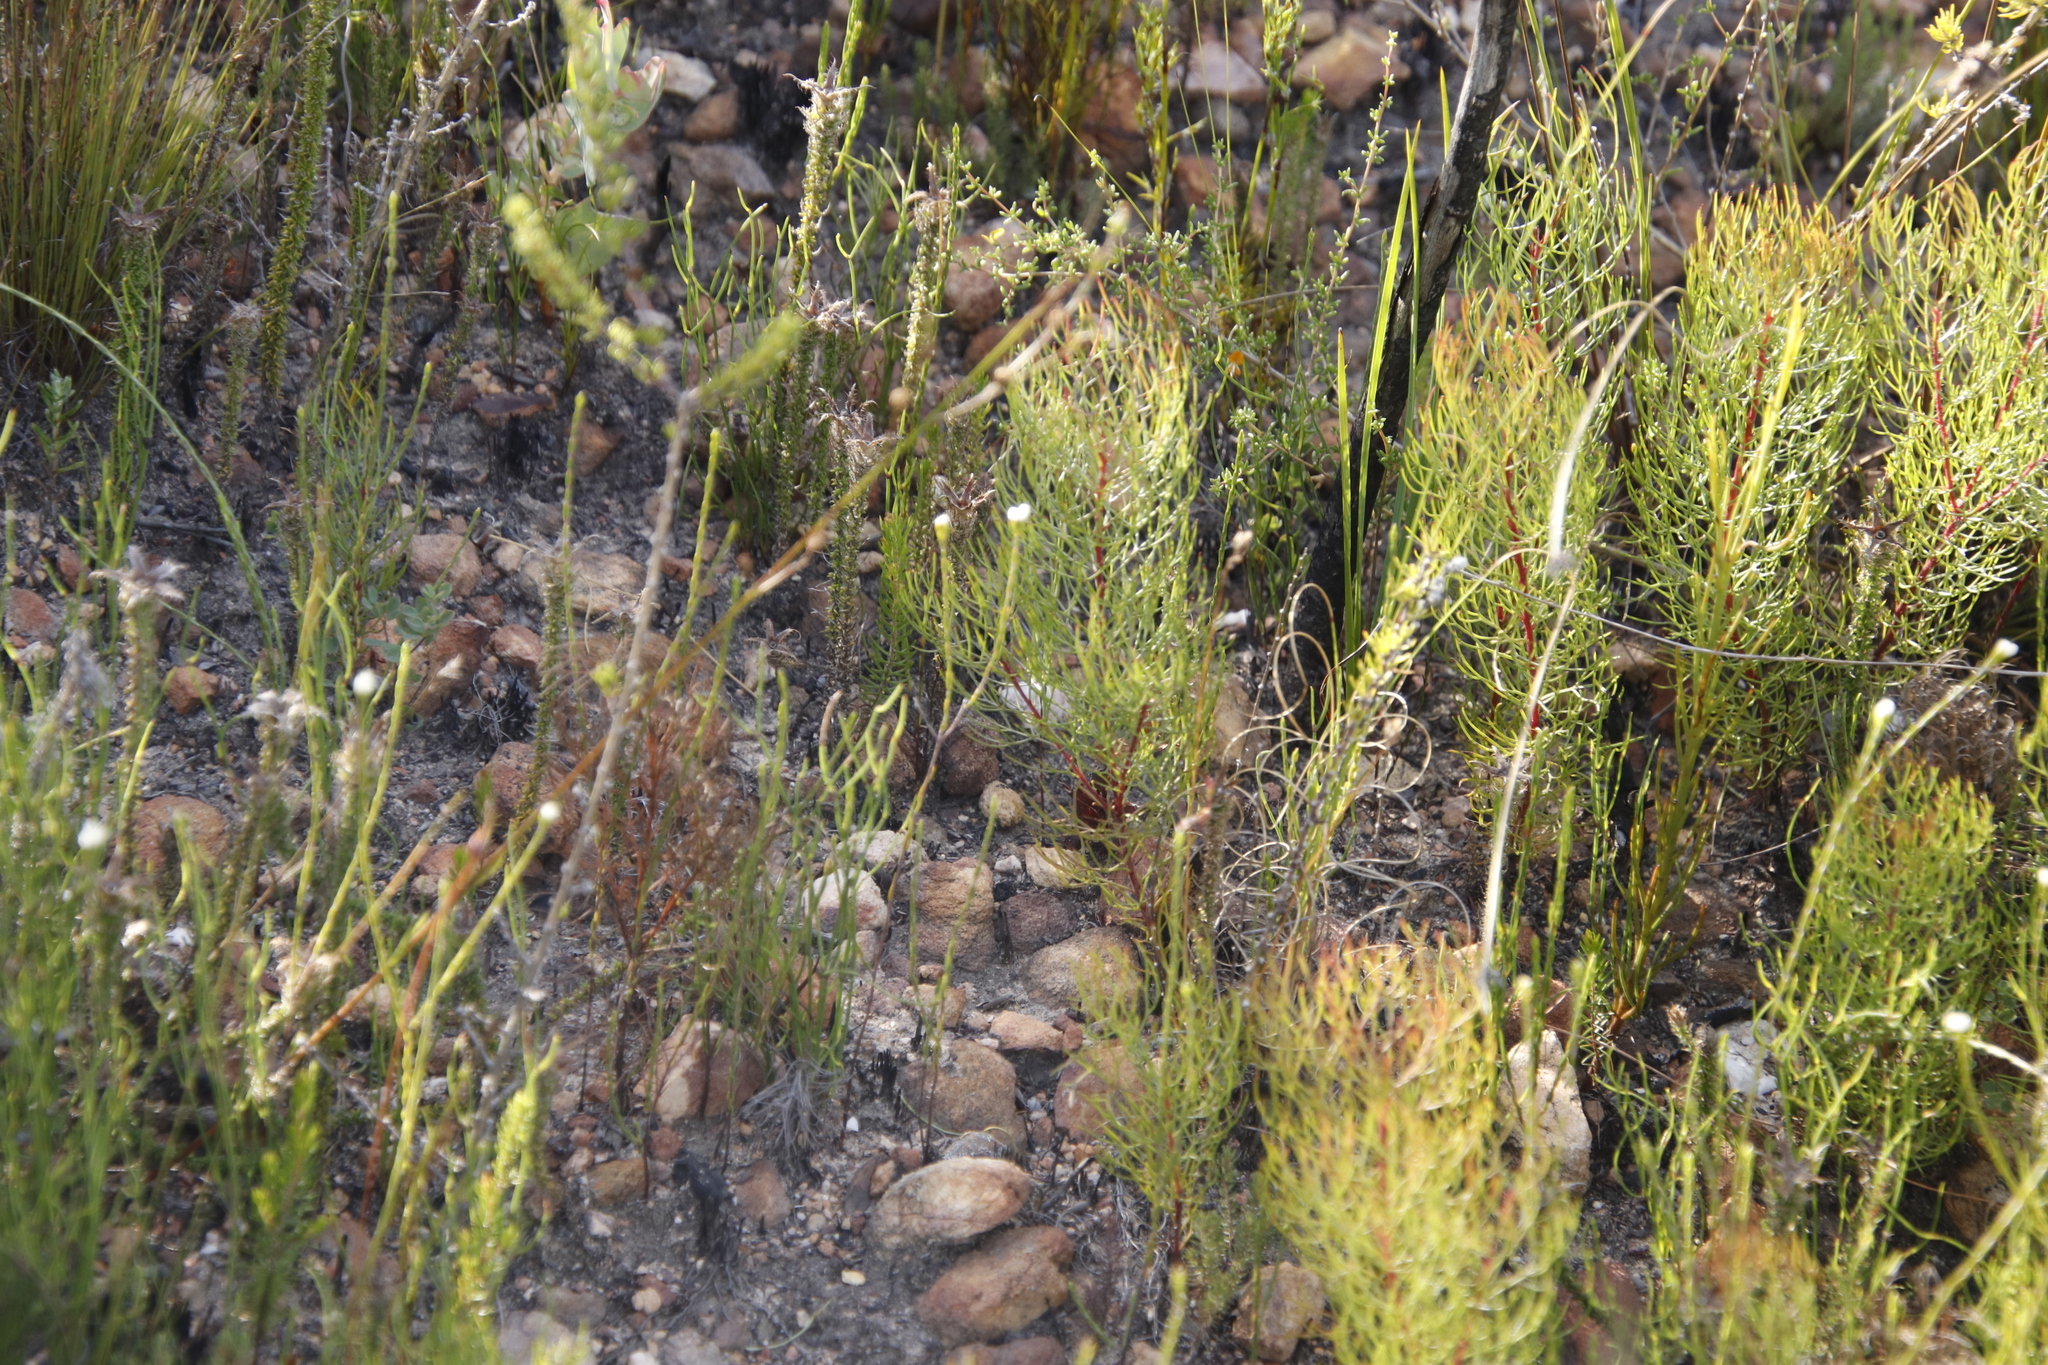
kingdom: Plantae
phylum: Tracheophyta
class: Magnoliopsida
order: Malvales
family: Thymelaeaceae
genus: Lachnaea
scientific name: Lachnaea greytonensis
